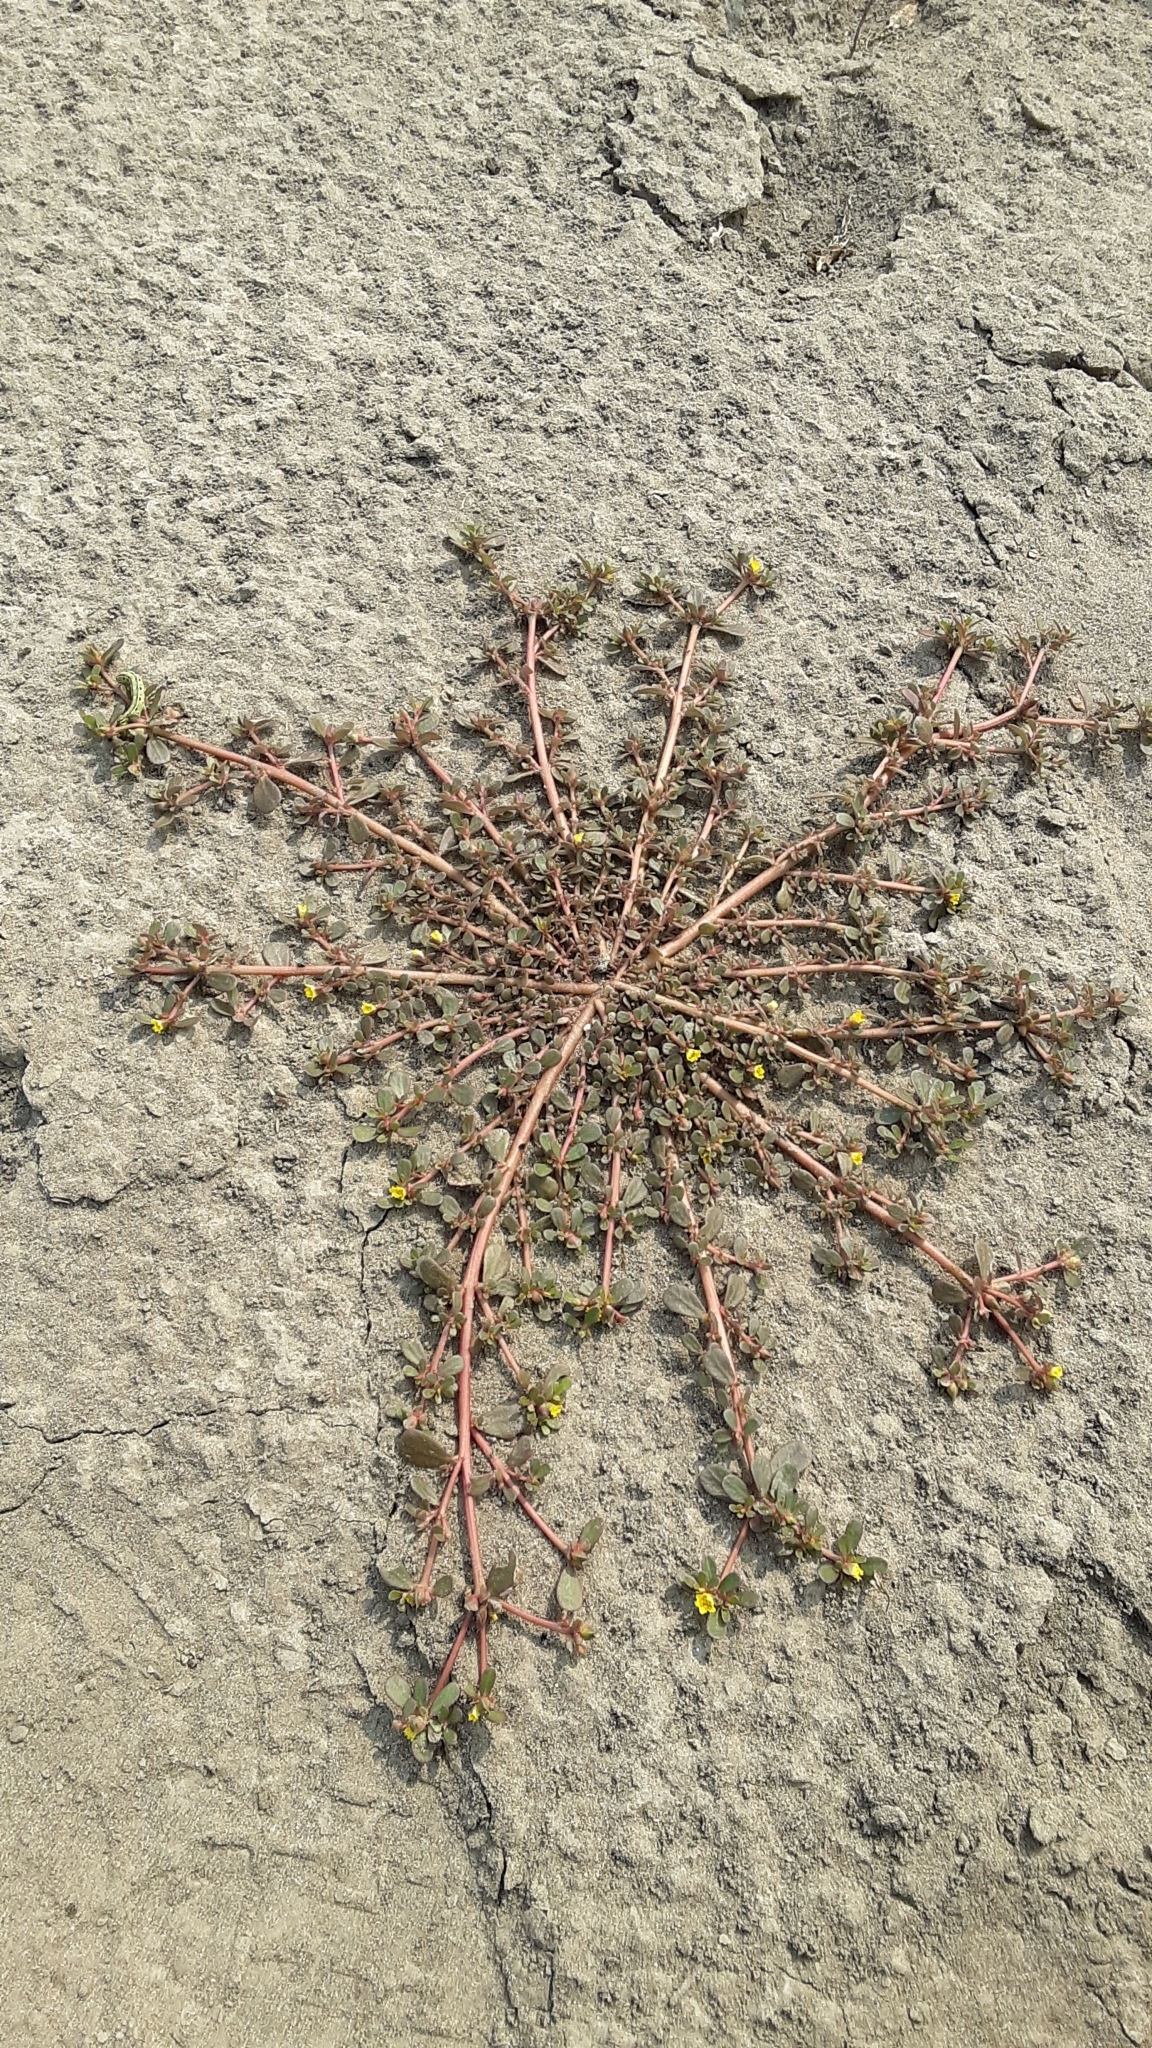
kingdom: Plantae
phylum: Tracheophyta
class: Magnoliopsida
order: Caryophyllales
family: Portulacaceae
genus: Portulaca
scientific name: Portulaca oleracea
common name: Common purslane
